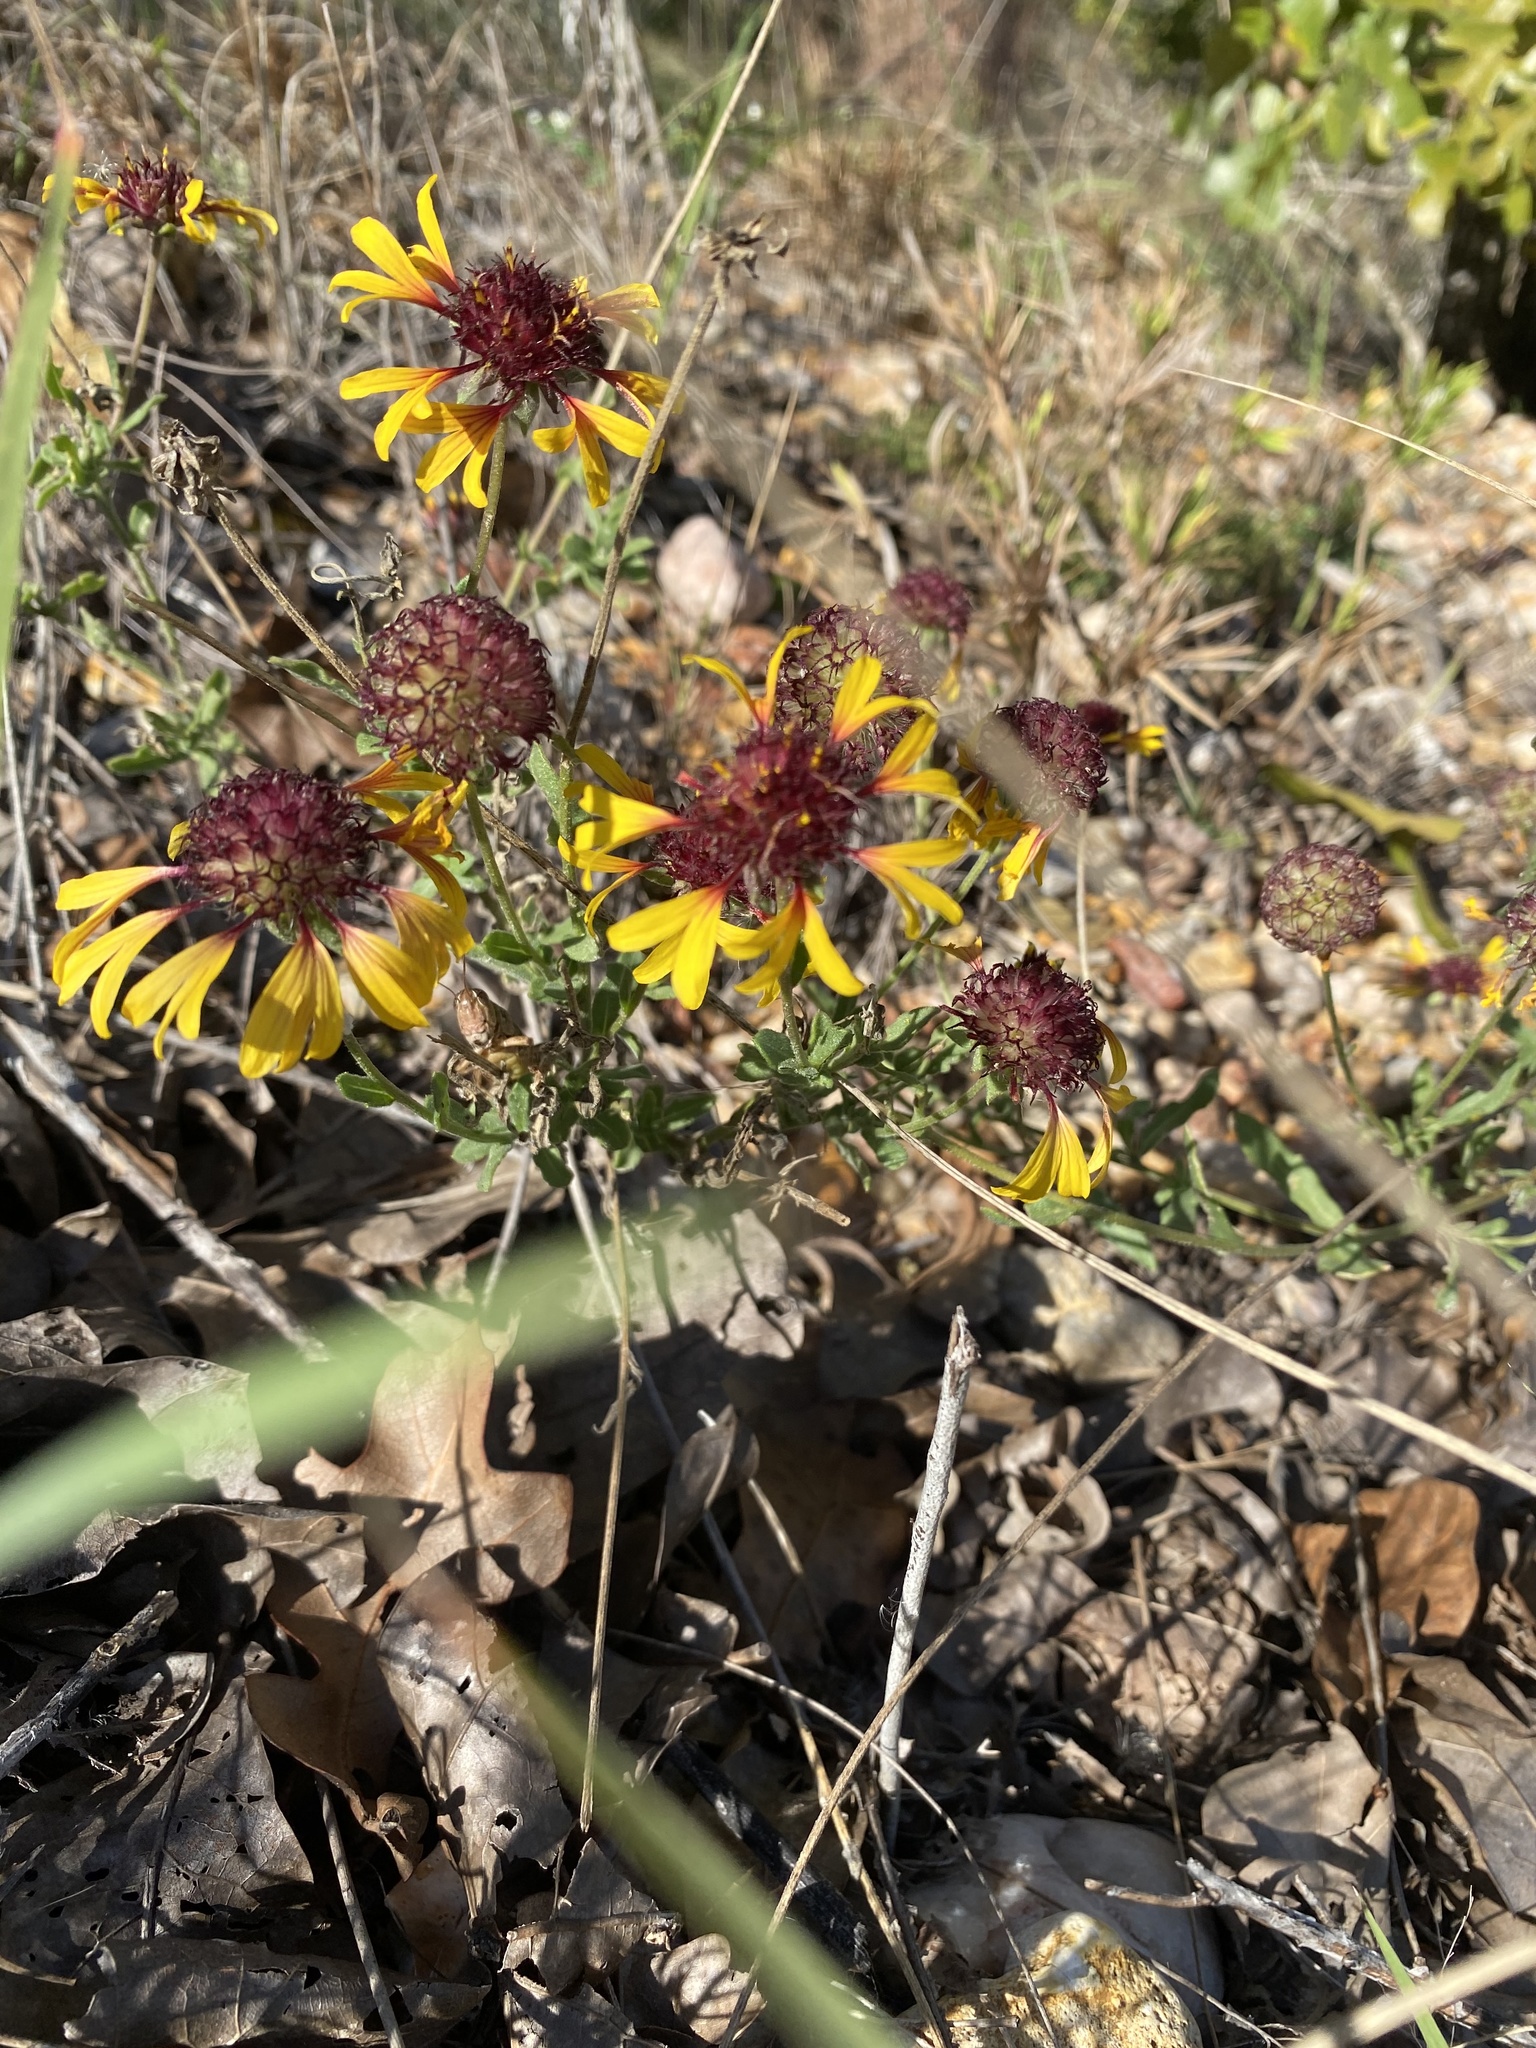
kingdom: Plantae
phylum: Tracheophyta
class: Magnoliopsida
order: Asterales
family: Asteraceae
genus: Gaillardia
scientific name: Gaillardia aestivalis
